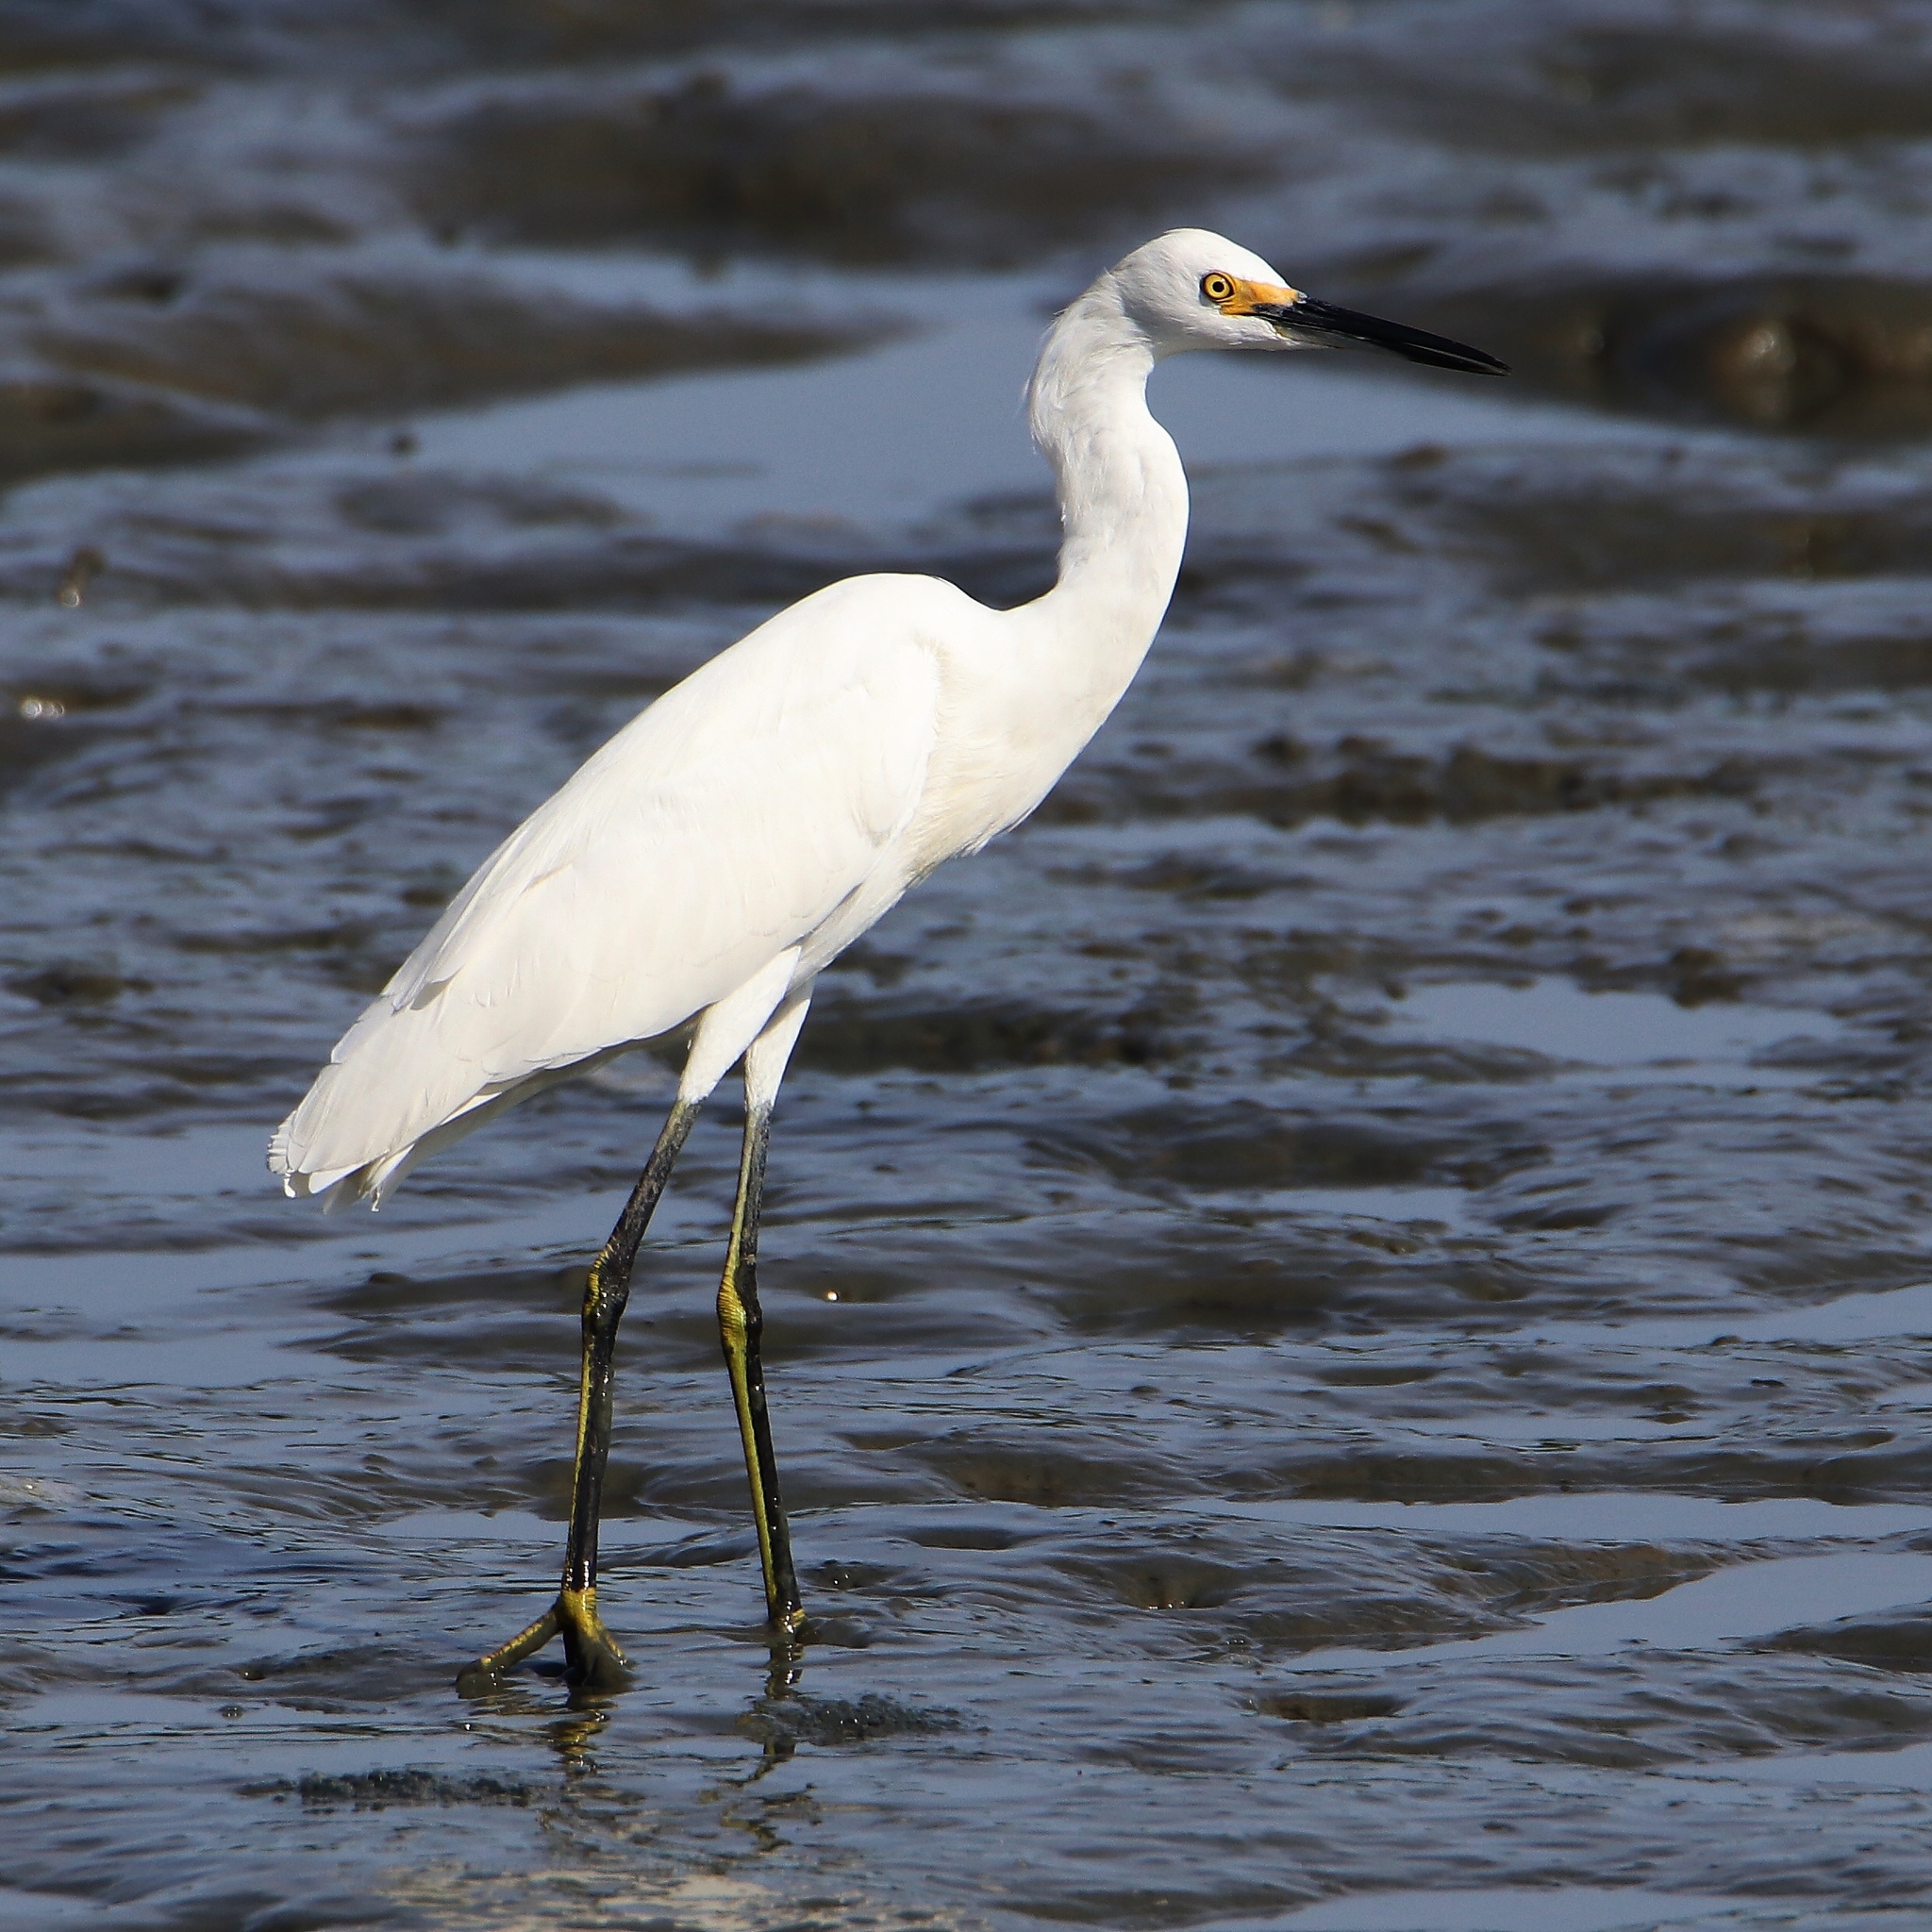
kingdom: Animalia
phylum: Chordata
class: Aves
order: Pelecaniformes
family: Ardeidae
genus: Egretta
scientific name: Egretta thula
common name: Snowy egret
